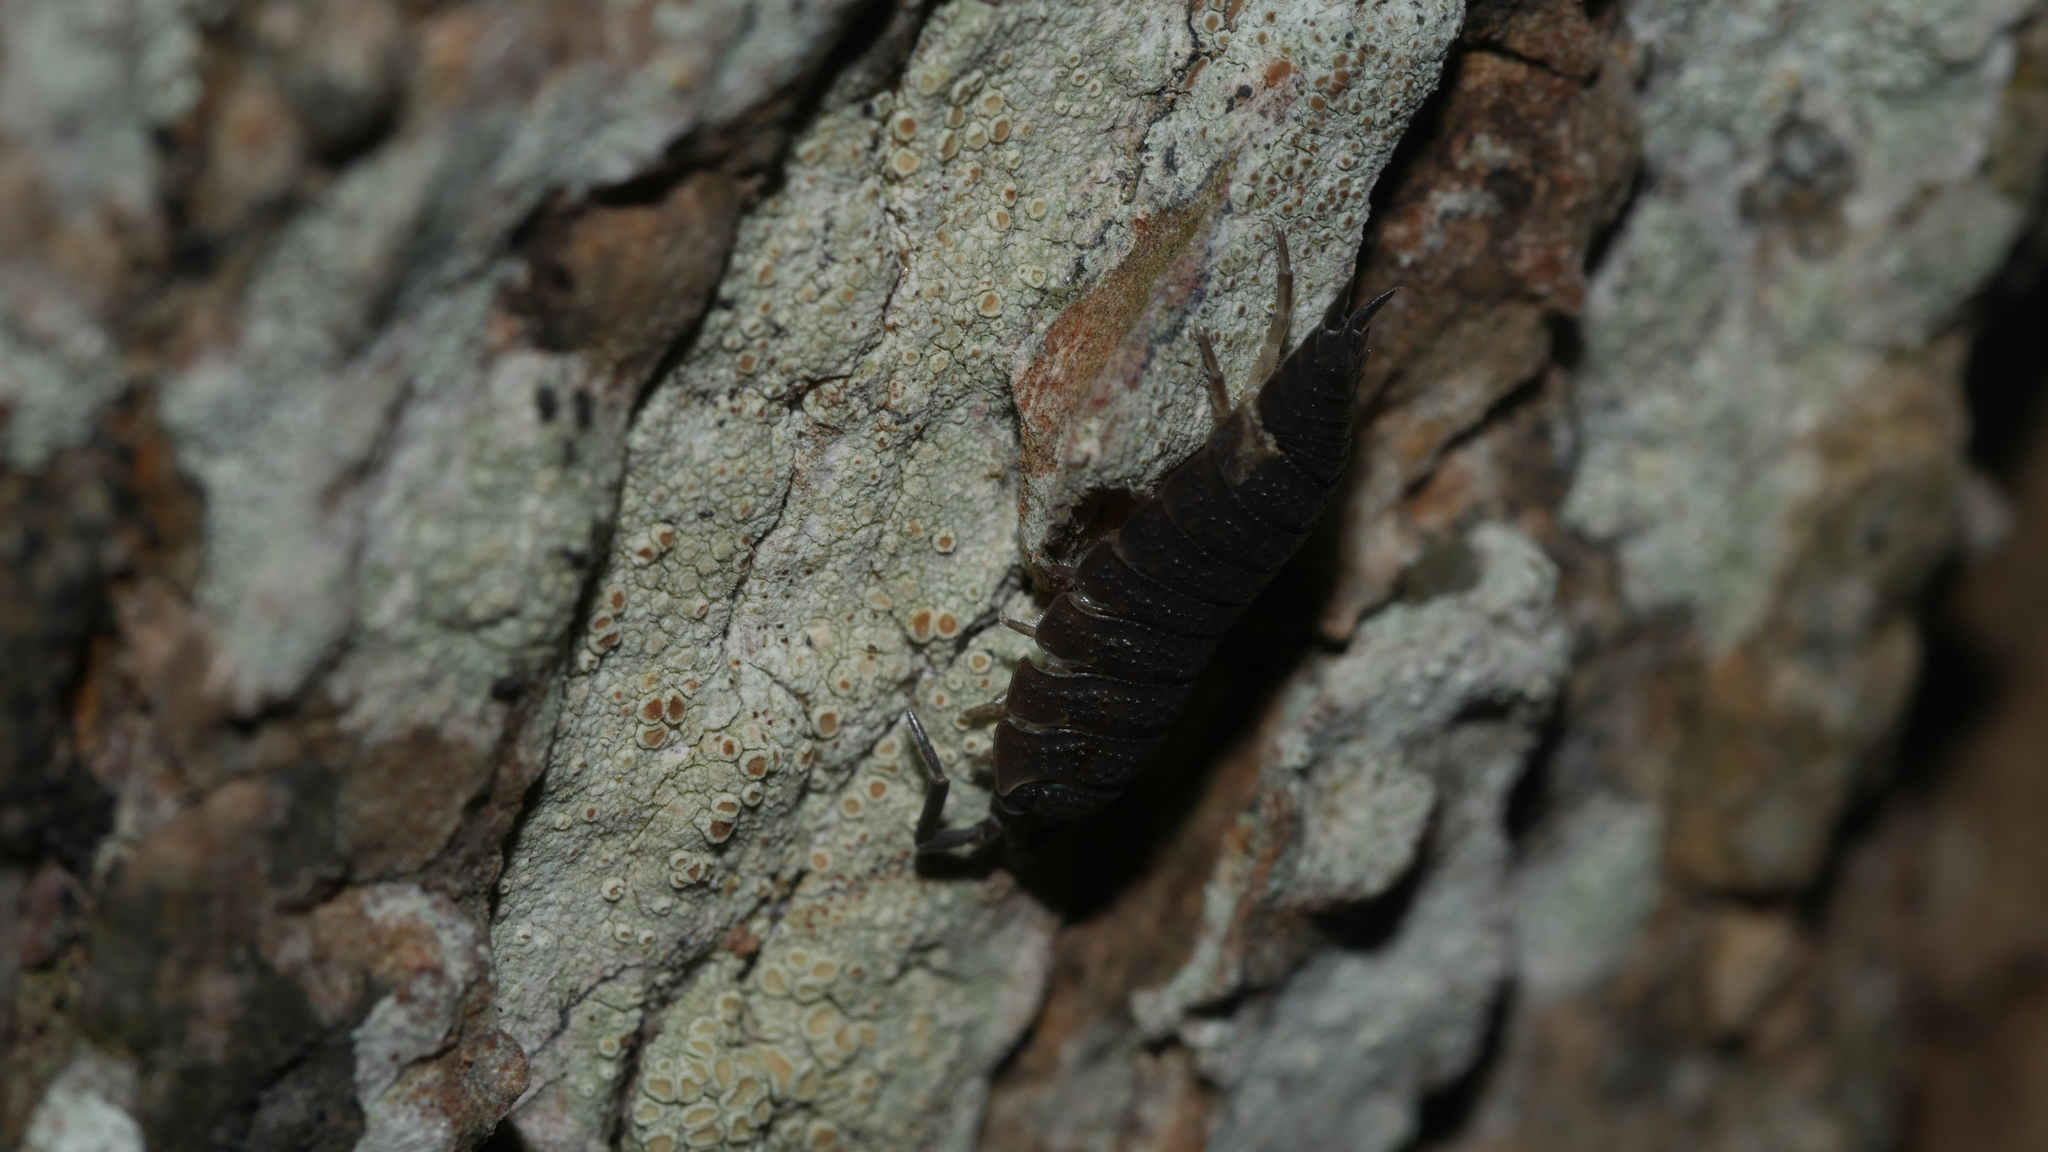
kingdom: Animalia
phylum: Arthropoda
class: Malacostraca
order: Isopoda
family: Porcellionidae
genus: Porcellio
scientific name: Porcellio scaber
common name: Common rough woodlouse
